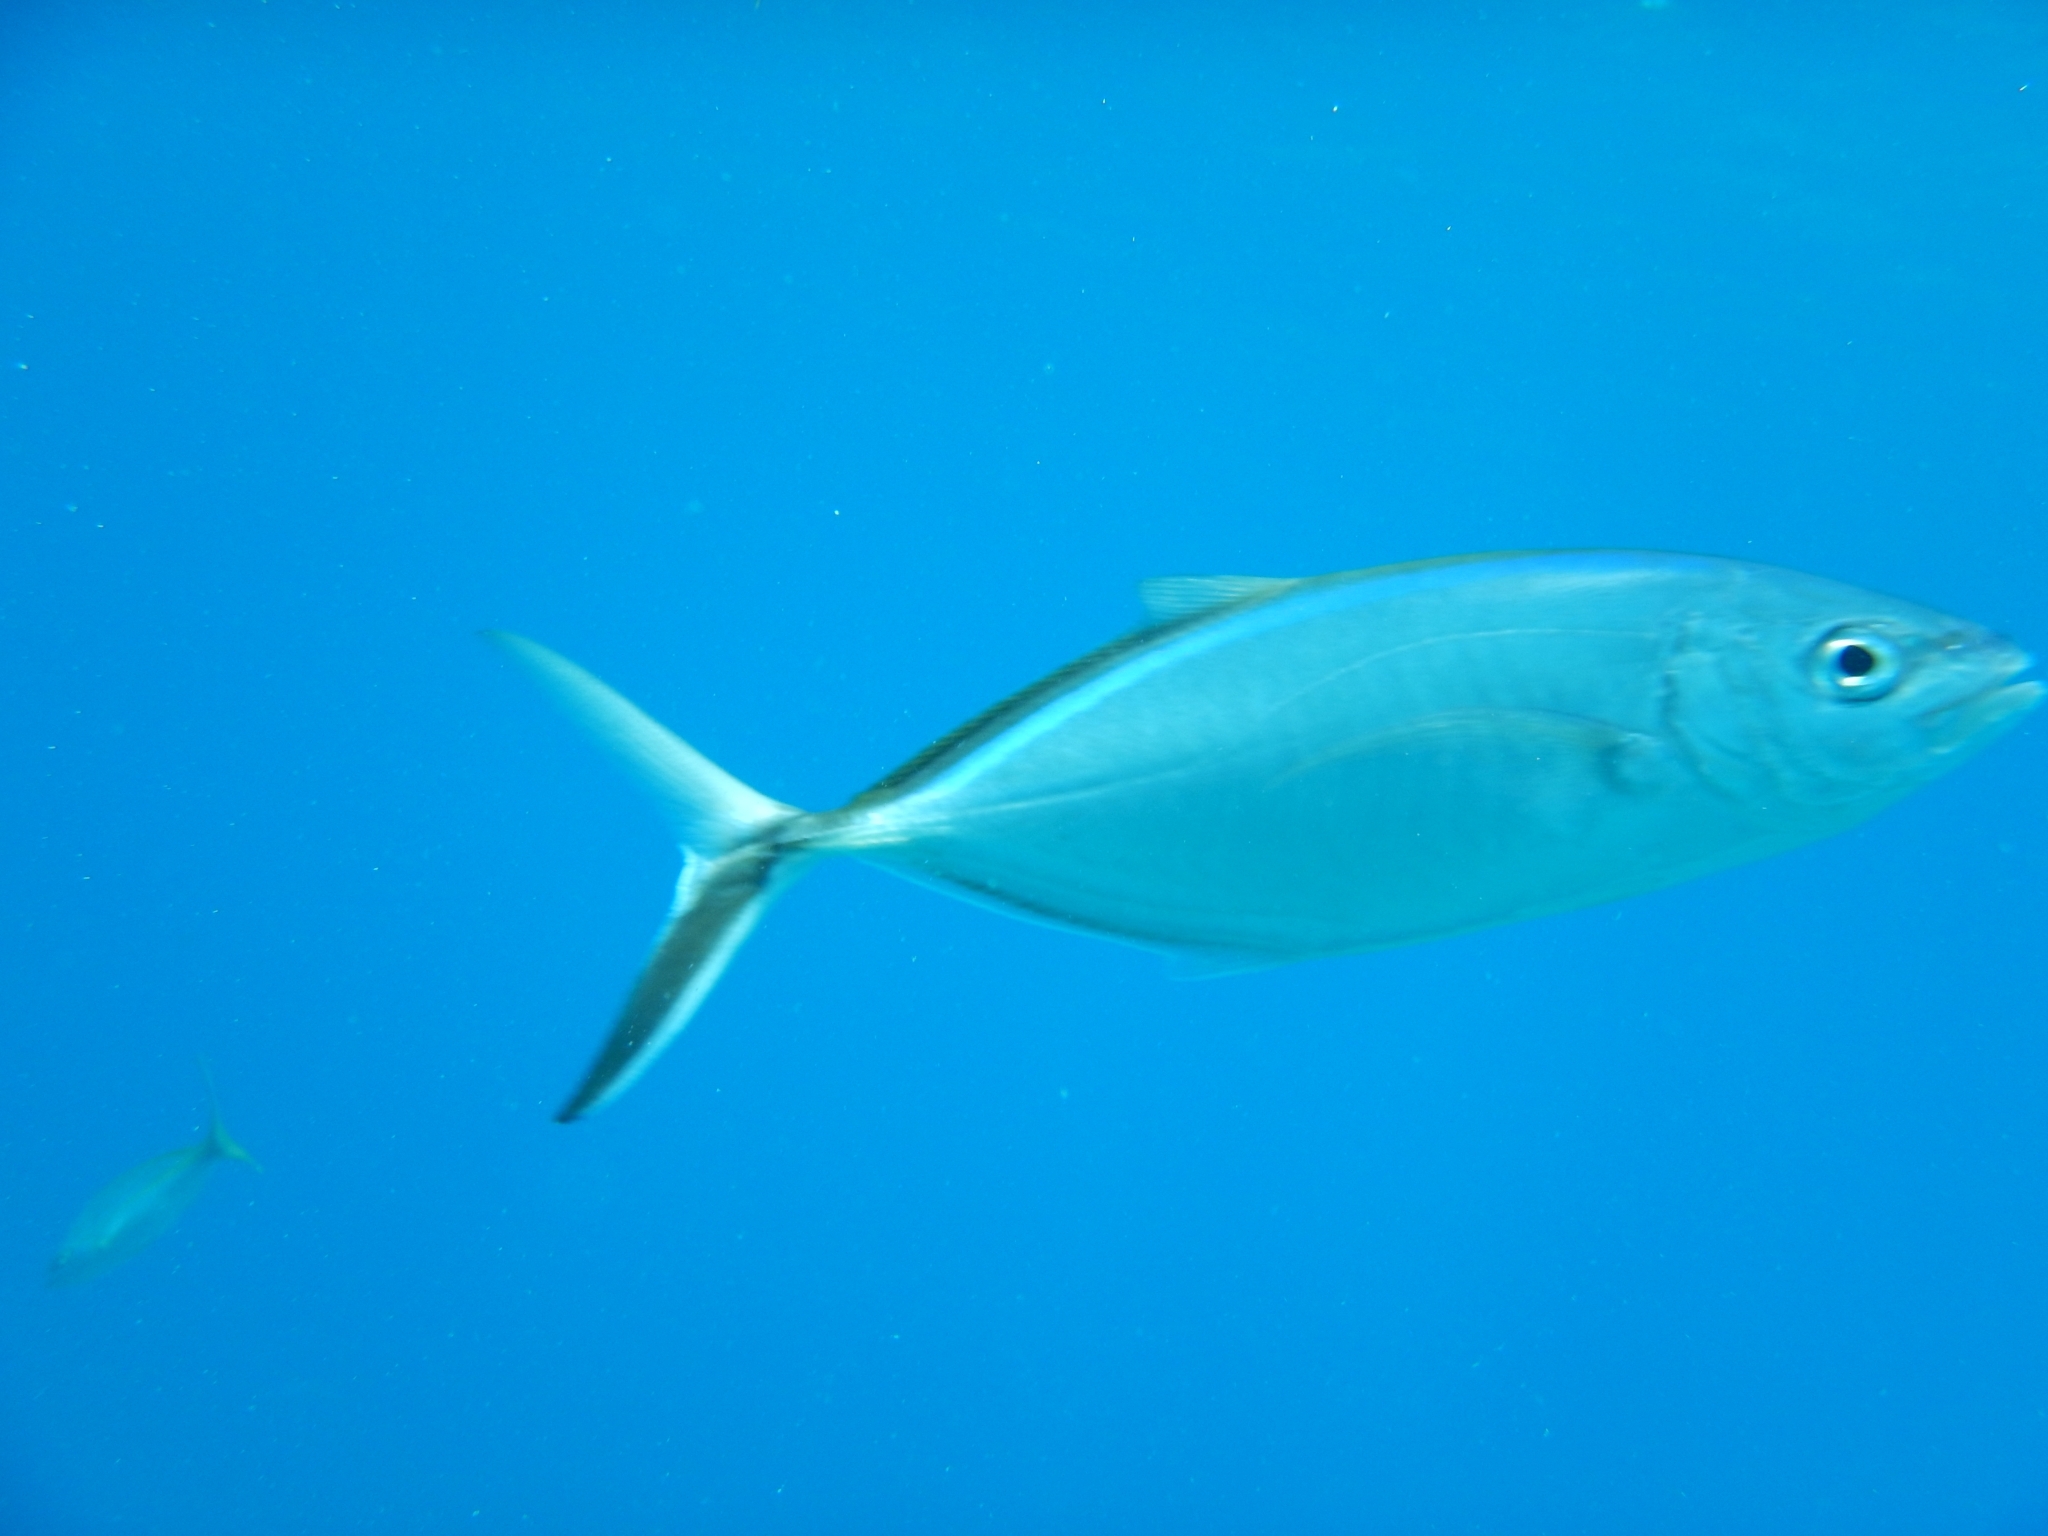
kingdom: Animalia
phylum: Chordata
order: Perciformes
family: Carangidae
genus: Caranx
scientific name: Caranx ruber
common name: Bar jack
